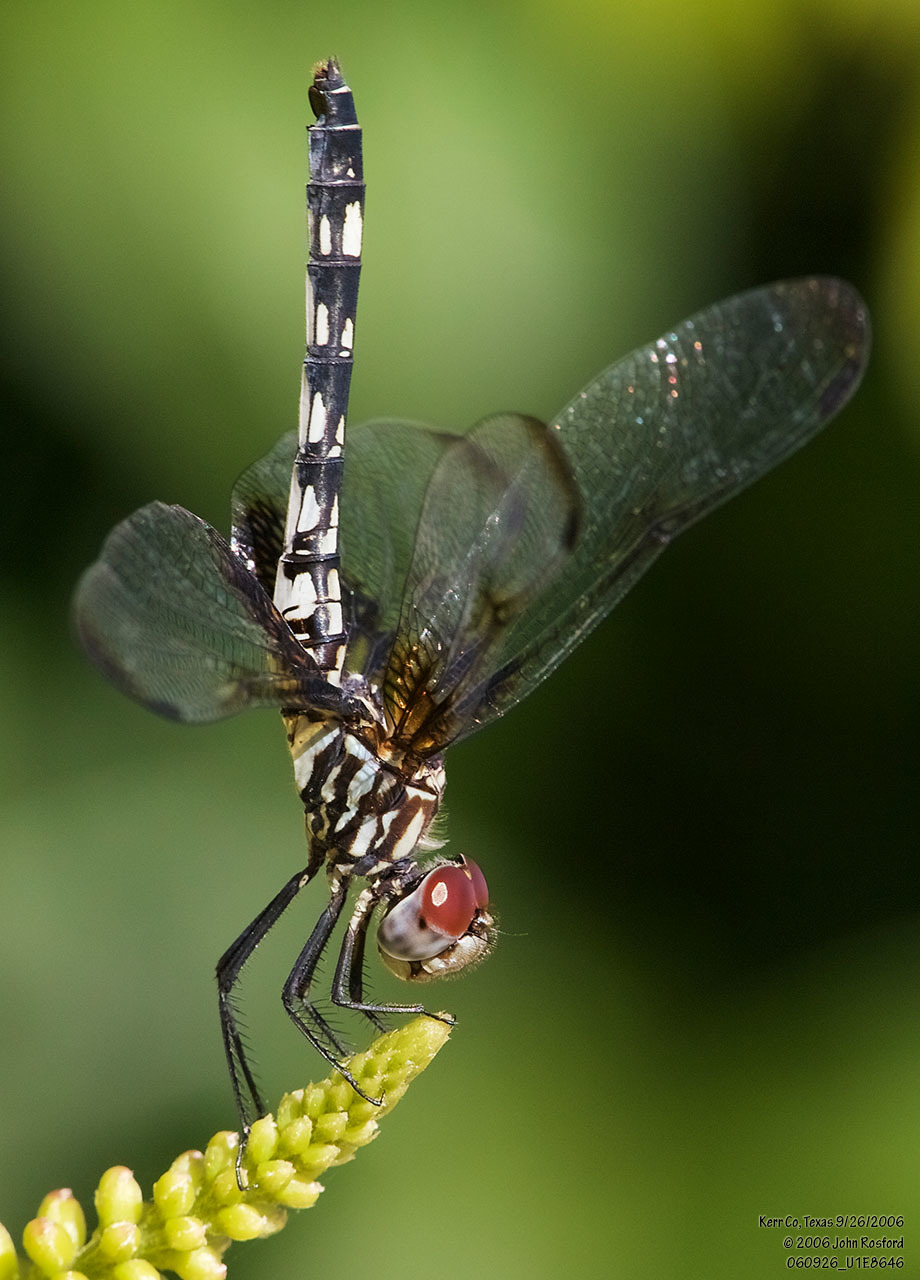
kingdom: Animalia
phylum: Arthropoda
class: Insecta
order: Odonata
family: Libellulidae
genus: Dythemis
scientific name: Dythemis fugax
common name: Checkered setwing
